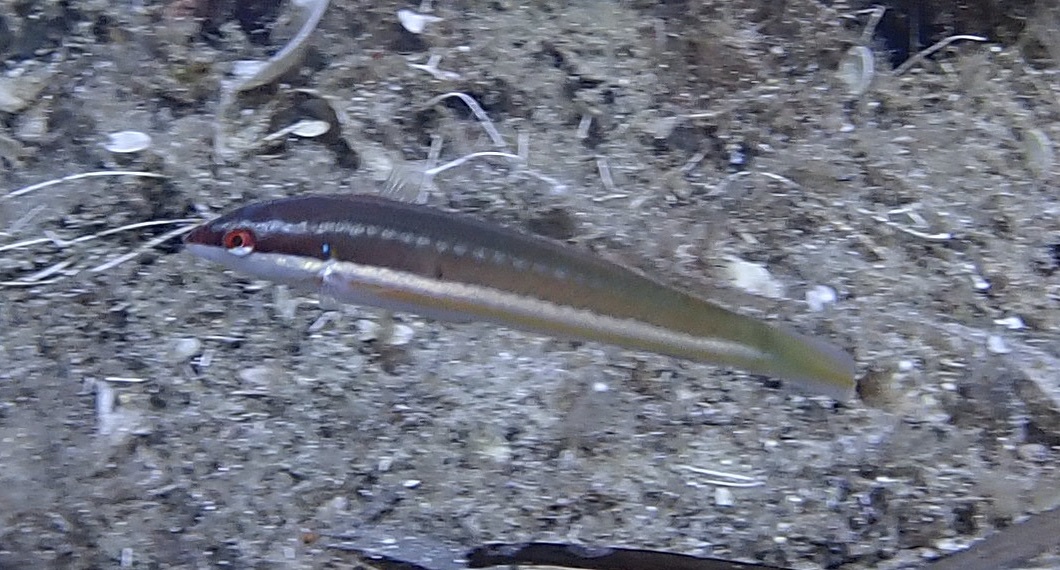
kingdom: Animalia
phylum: Chordata
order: Perciformes
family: Labridae
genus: Coris
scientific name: Coris julis
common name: Rainbow wrasse
